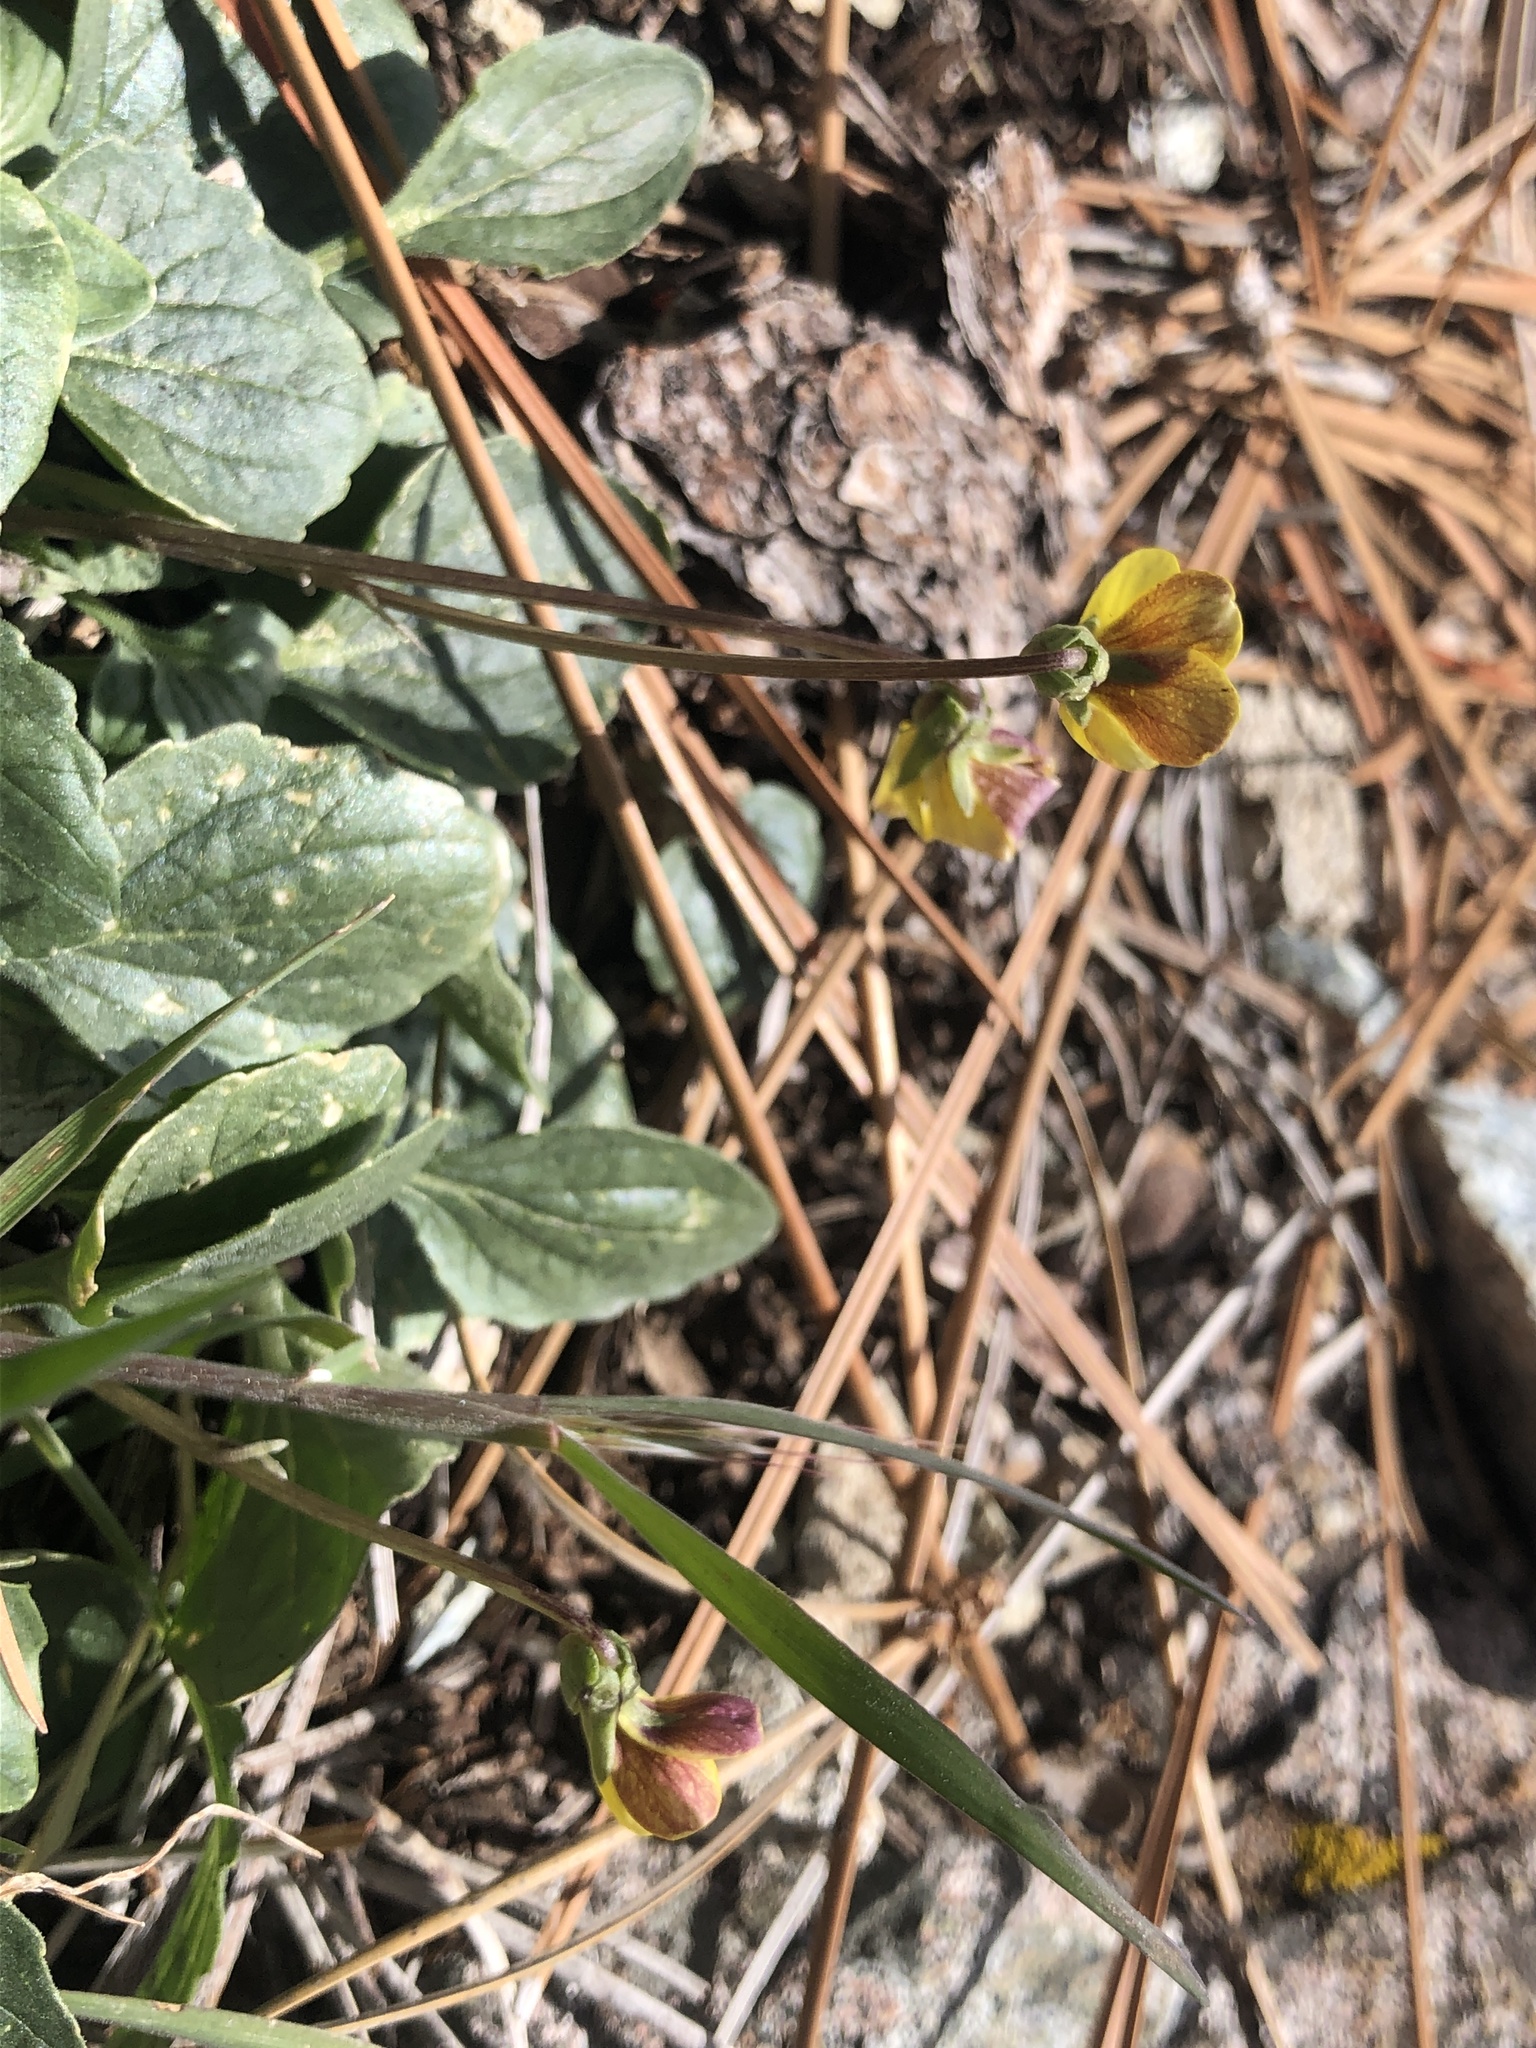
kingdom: Plantae
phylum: Tracheophyta
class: Magnoliopsida
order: Malpighiales
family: Violaceae
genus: Viola
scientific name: Viola purpurea
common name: Pine violet
